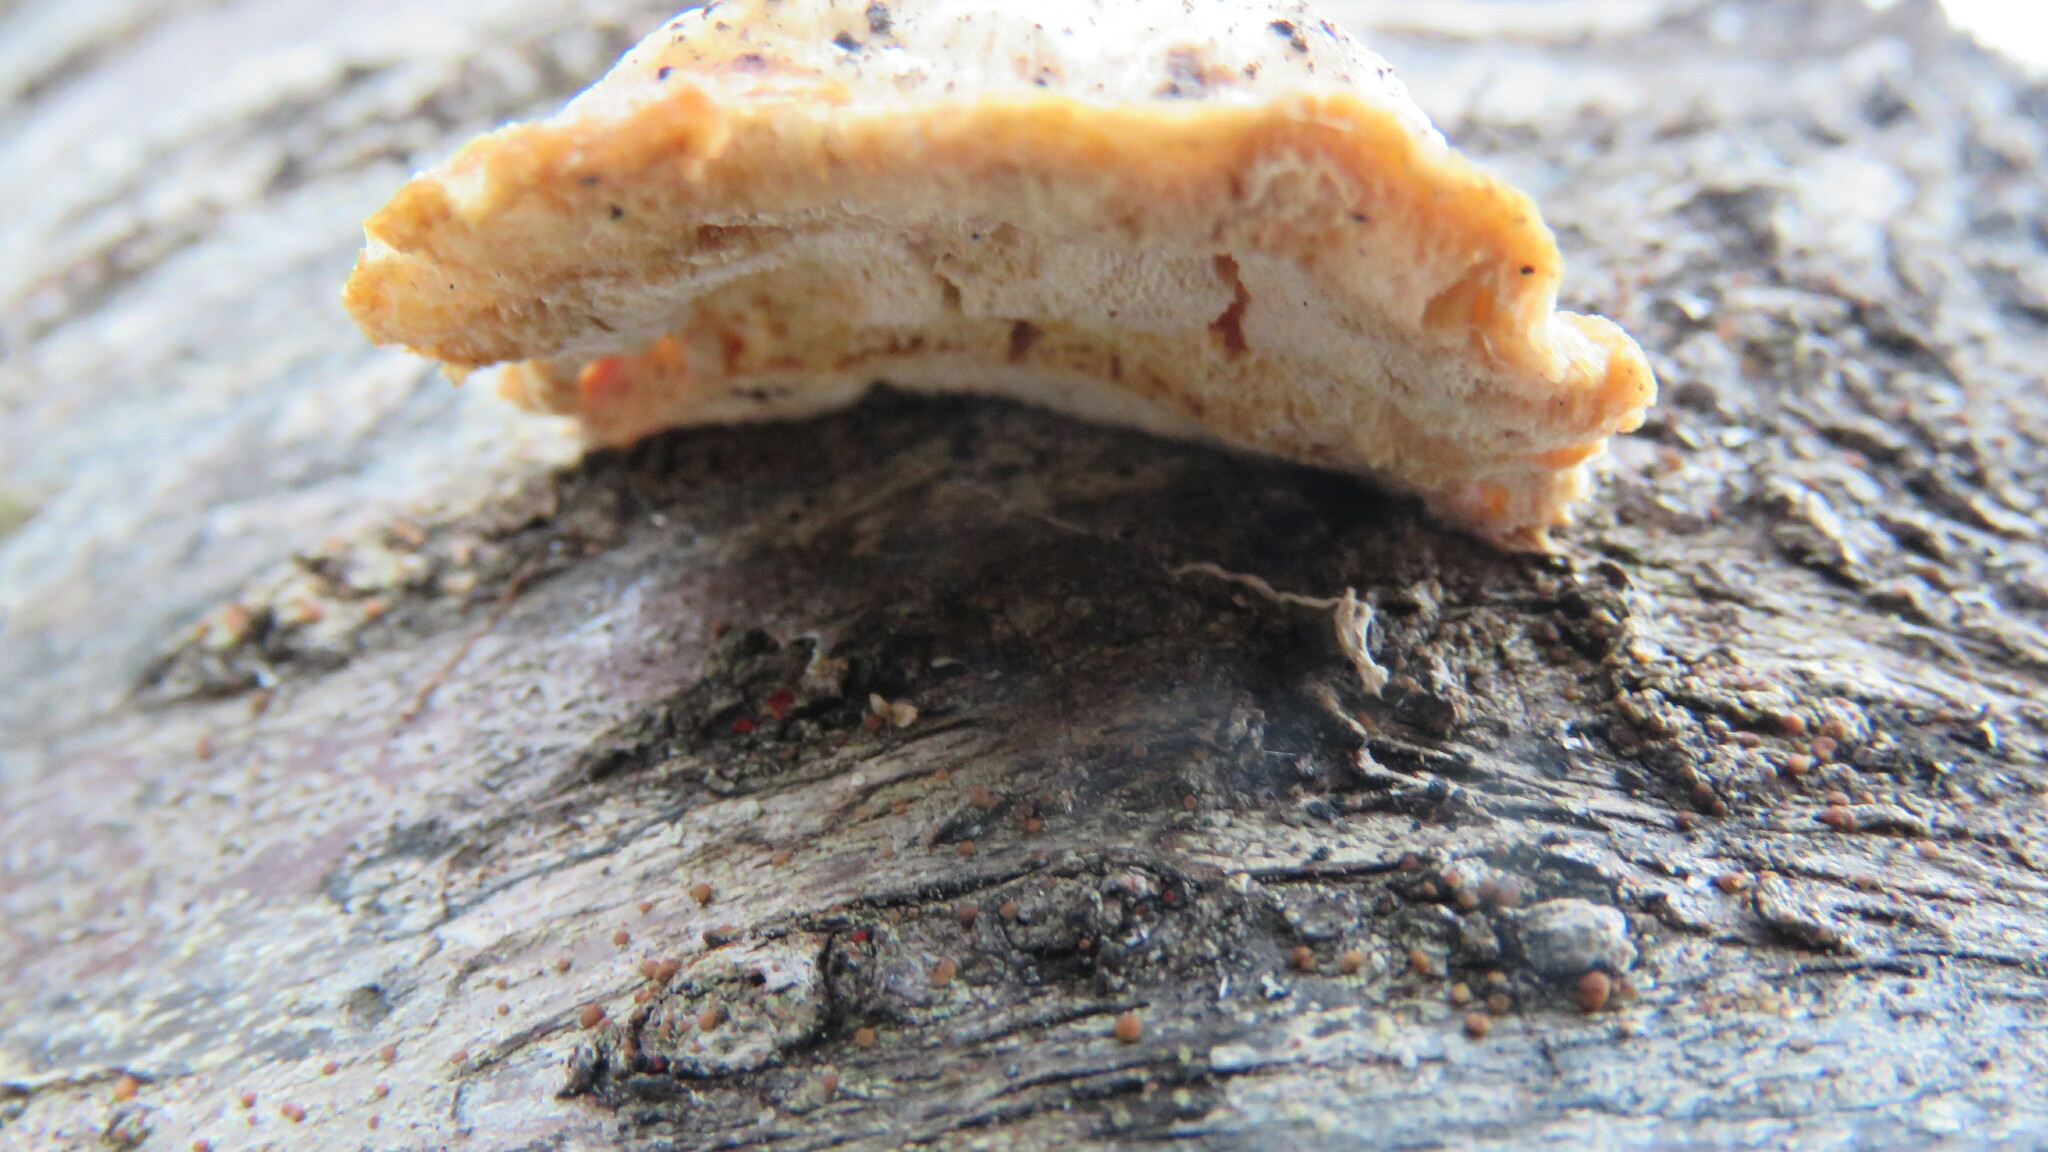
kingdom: Fungi
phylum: Basidiomycota
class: Agaricomycetes
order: Polyporales
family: Incrustoporiaceae
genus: Tyromyces
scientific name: Tyromyces chioneus
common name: White cheese polypore
